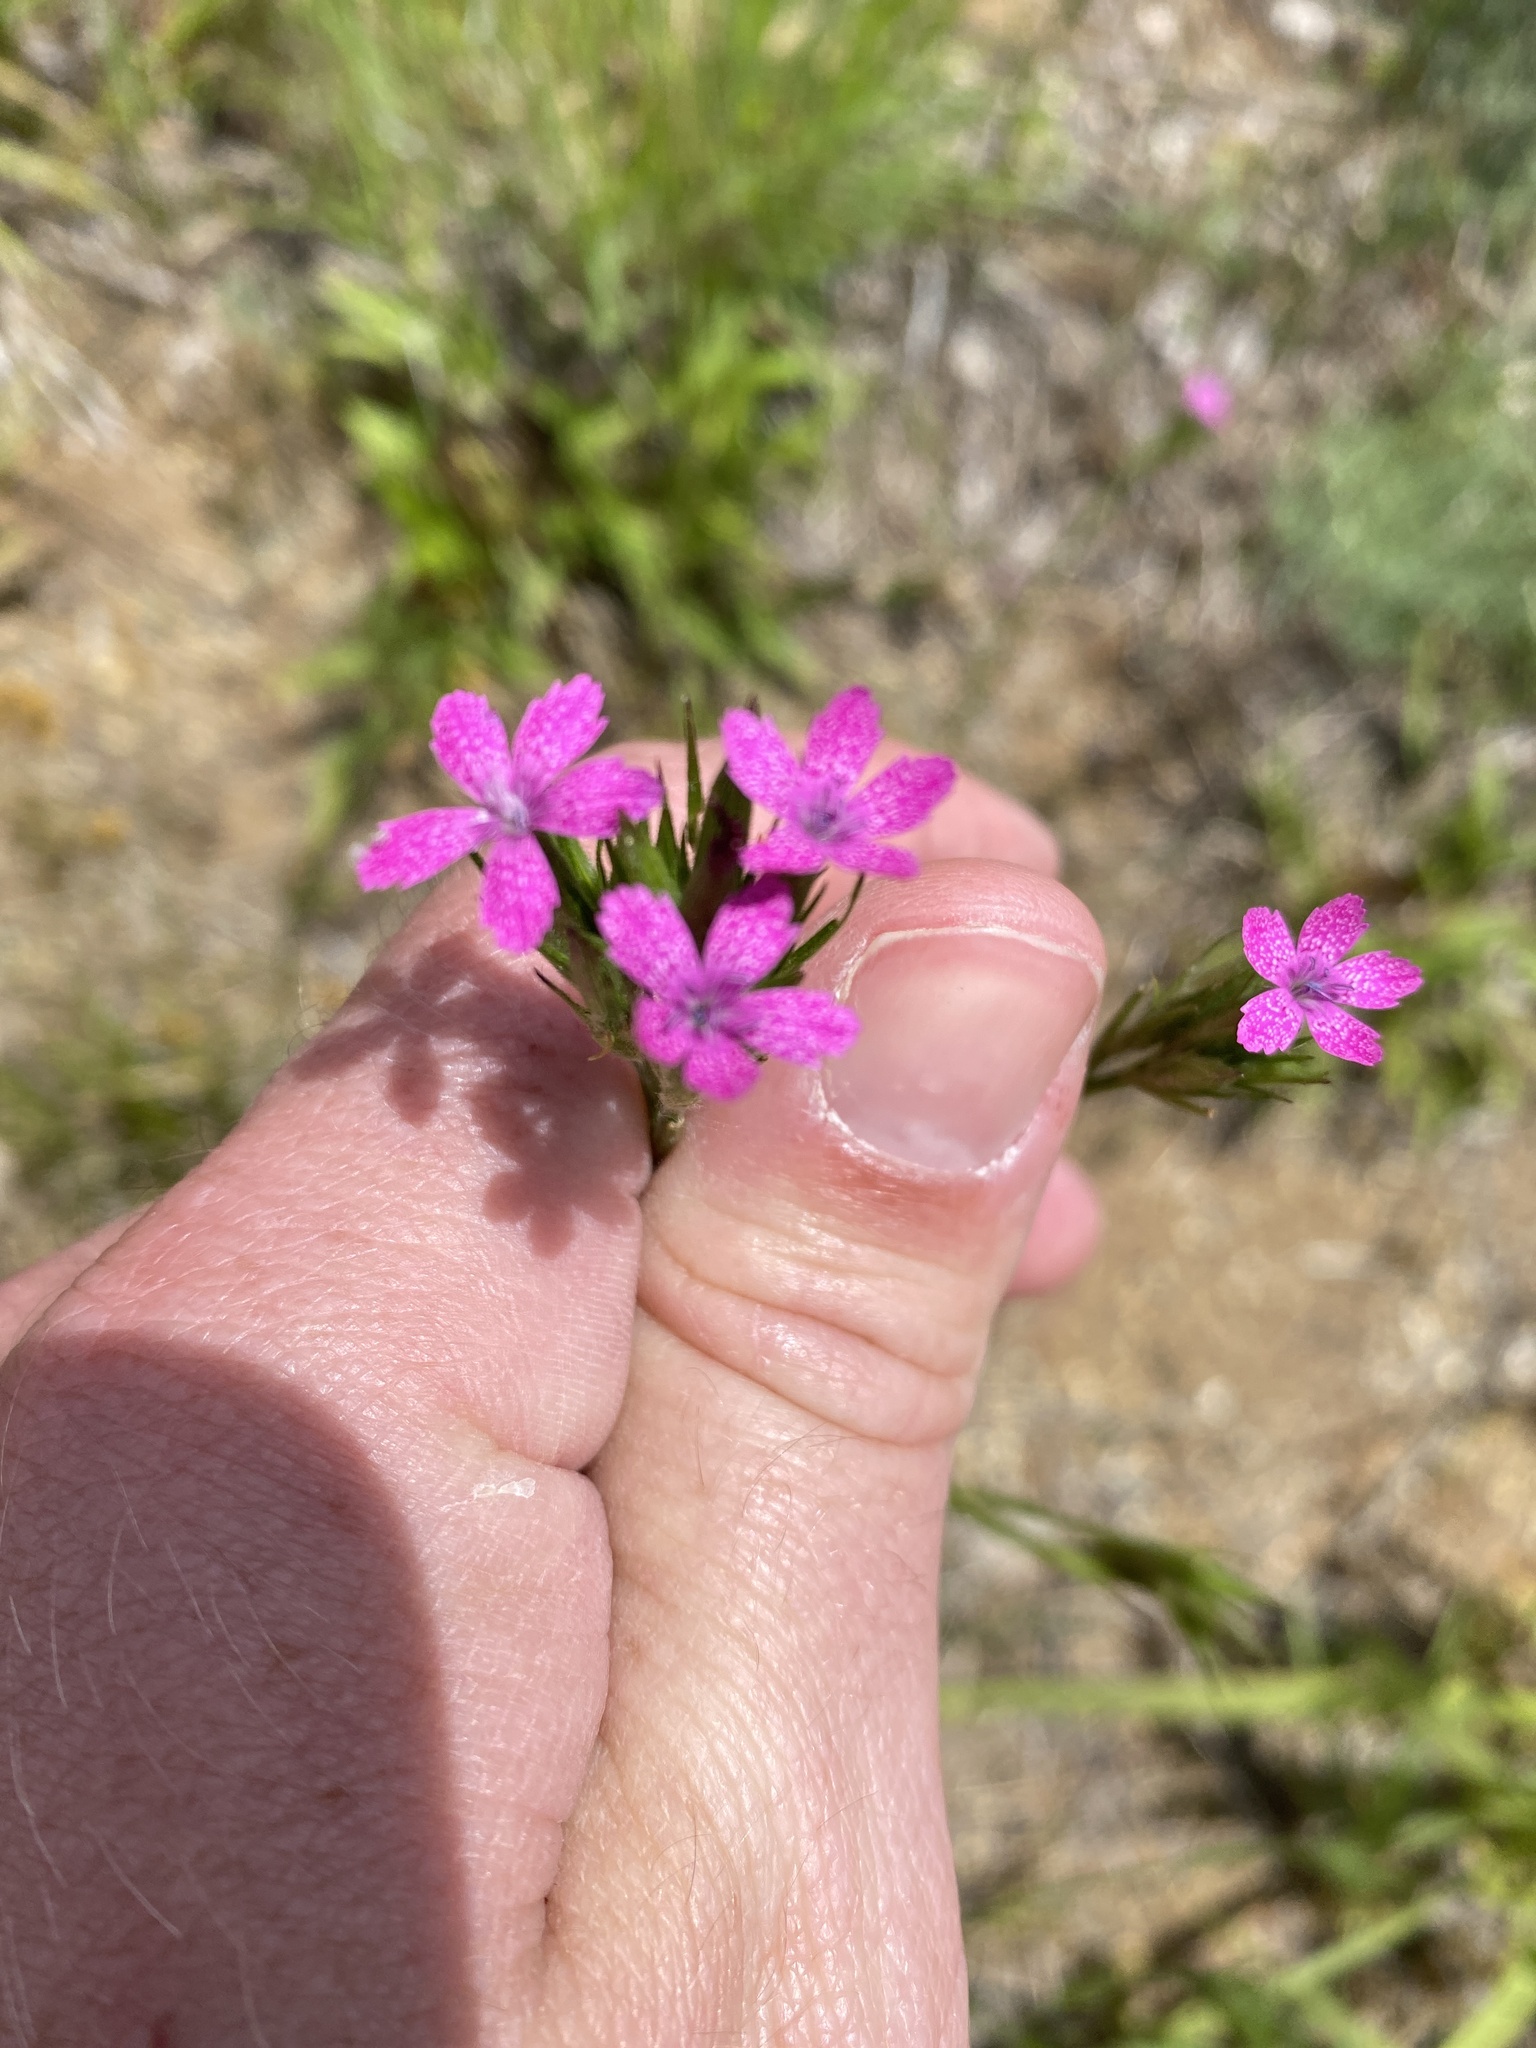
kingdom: Plantae
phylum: Tracheophyta
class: Magnoliopsida
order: Caryophyllales
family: Caryophyllaceae
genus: Dianthus
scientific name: Dianthus armeria
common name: Deptford pink
